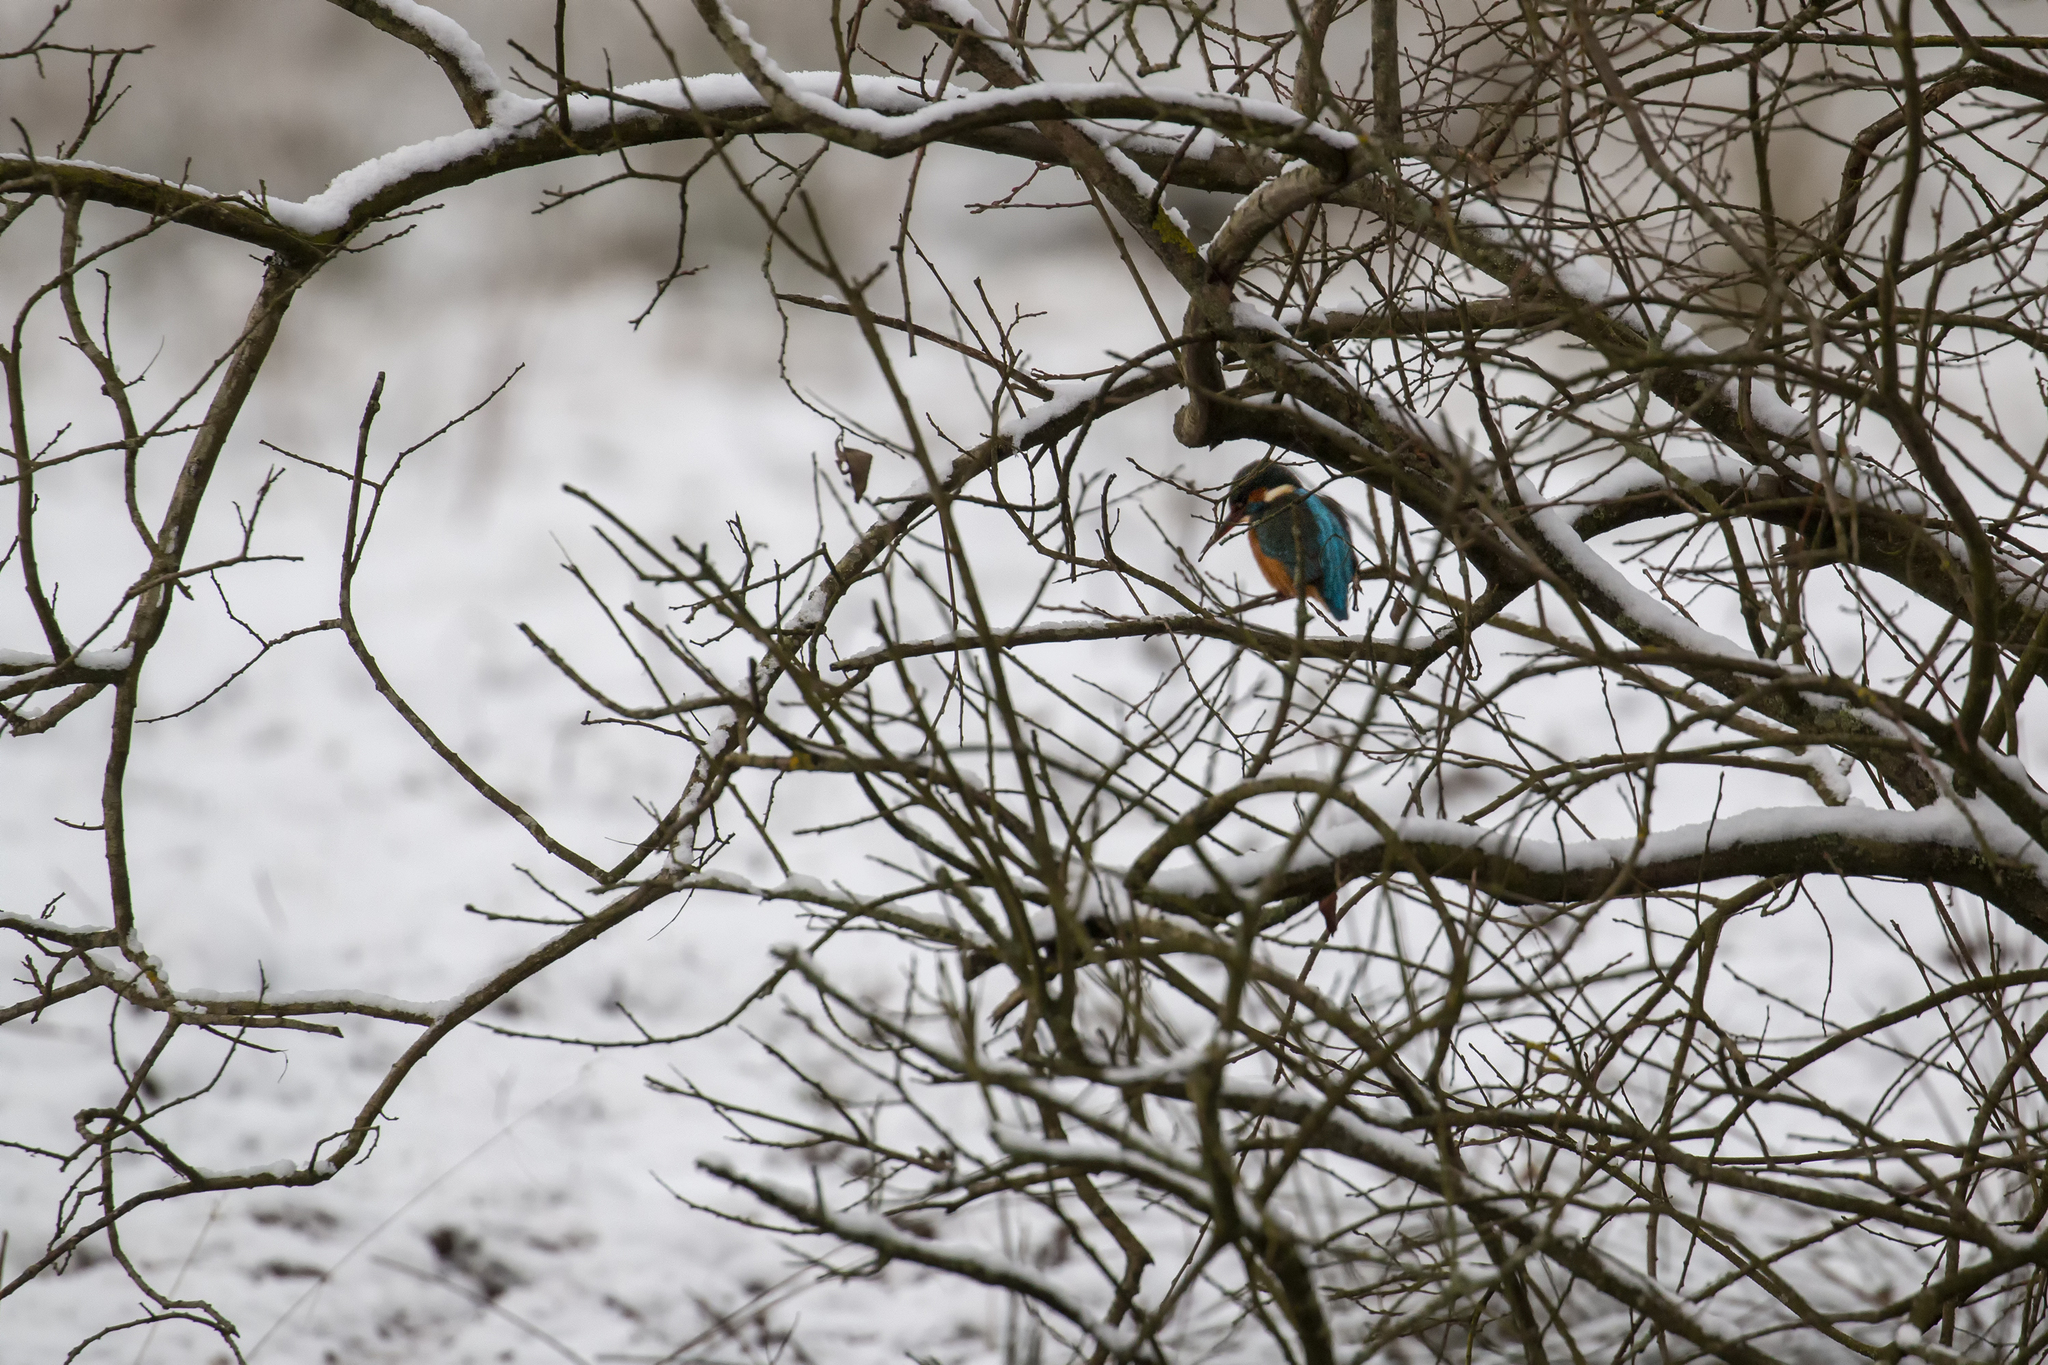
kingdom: Animalia
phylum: Chordata
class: Aves
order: Coraciiformes
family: Alcedinidae
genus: Alcedo
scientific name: Alcedo atthis
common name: Common kingfisher
